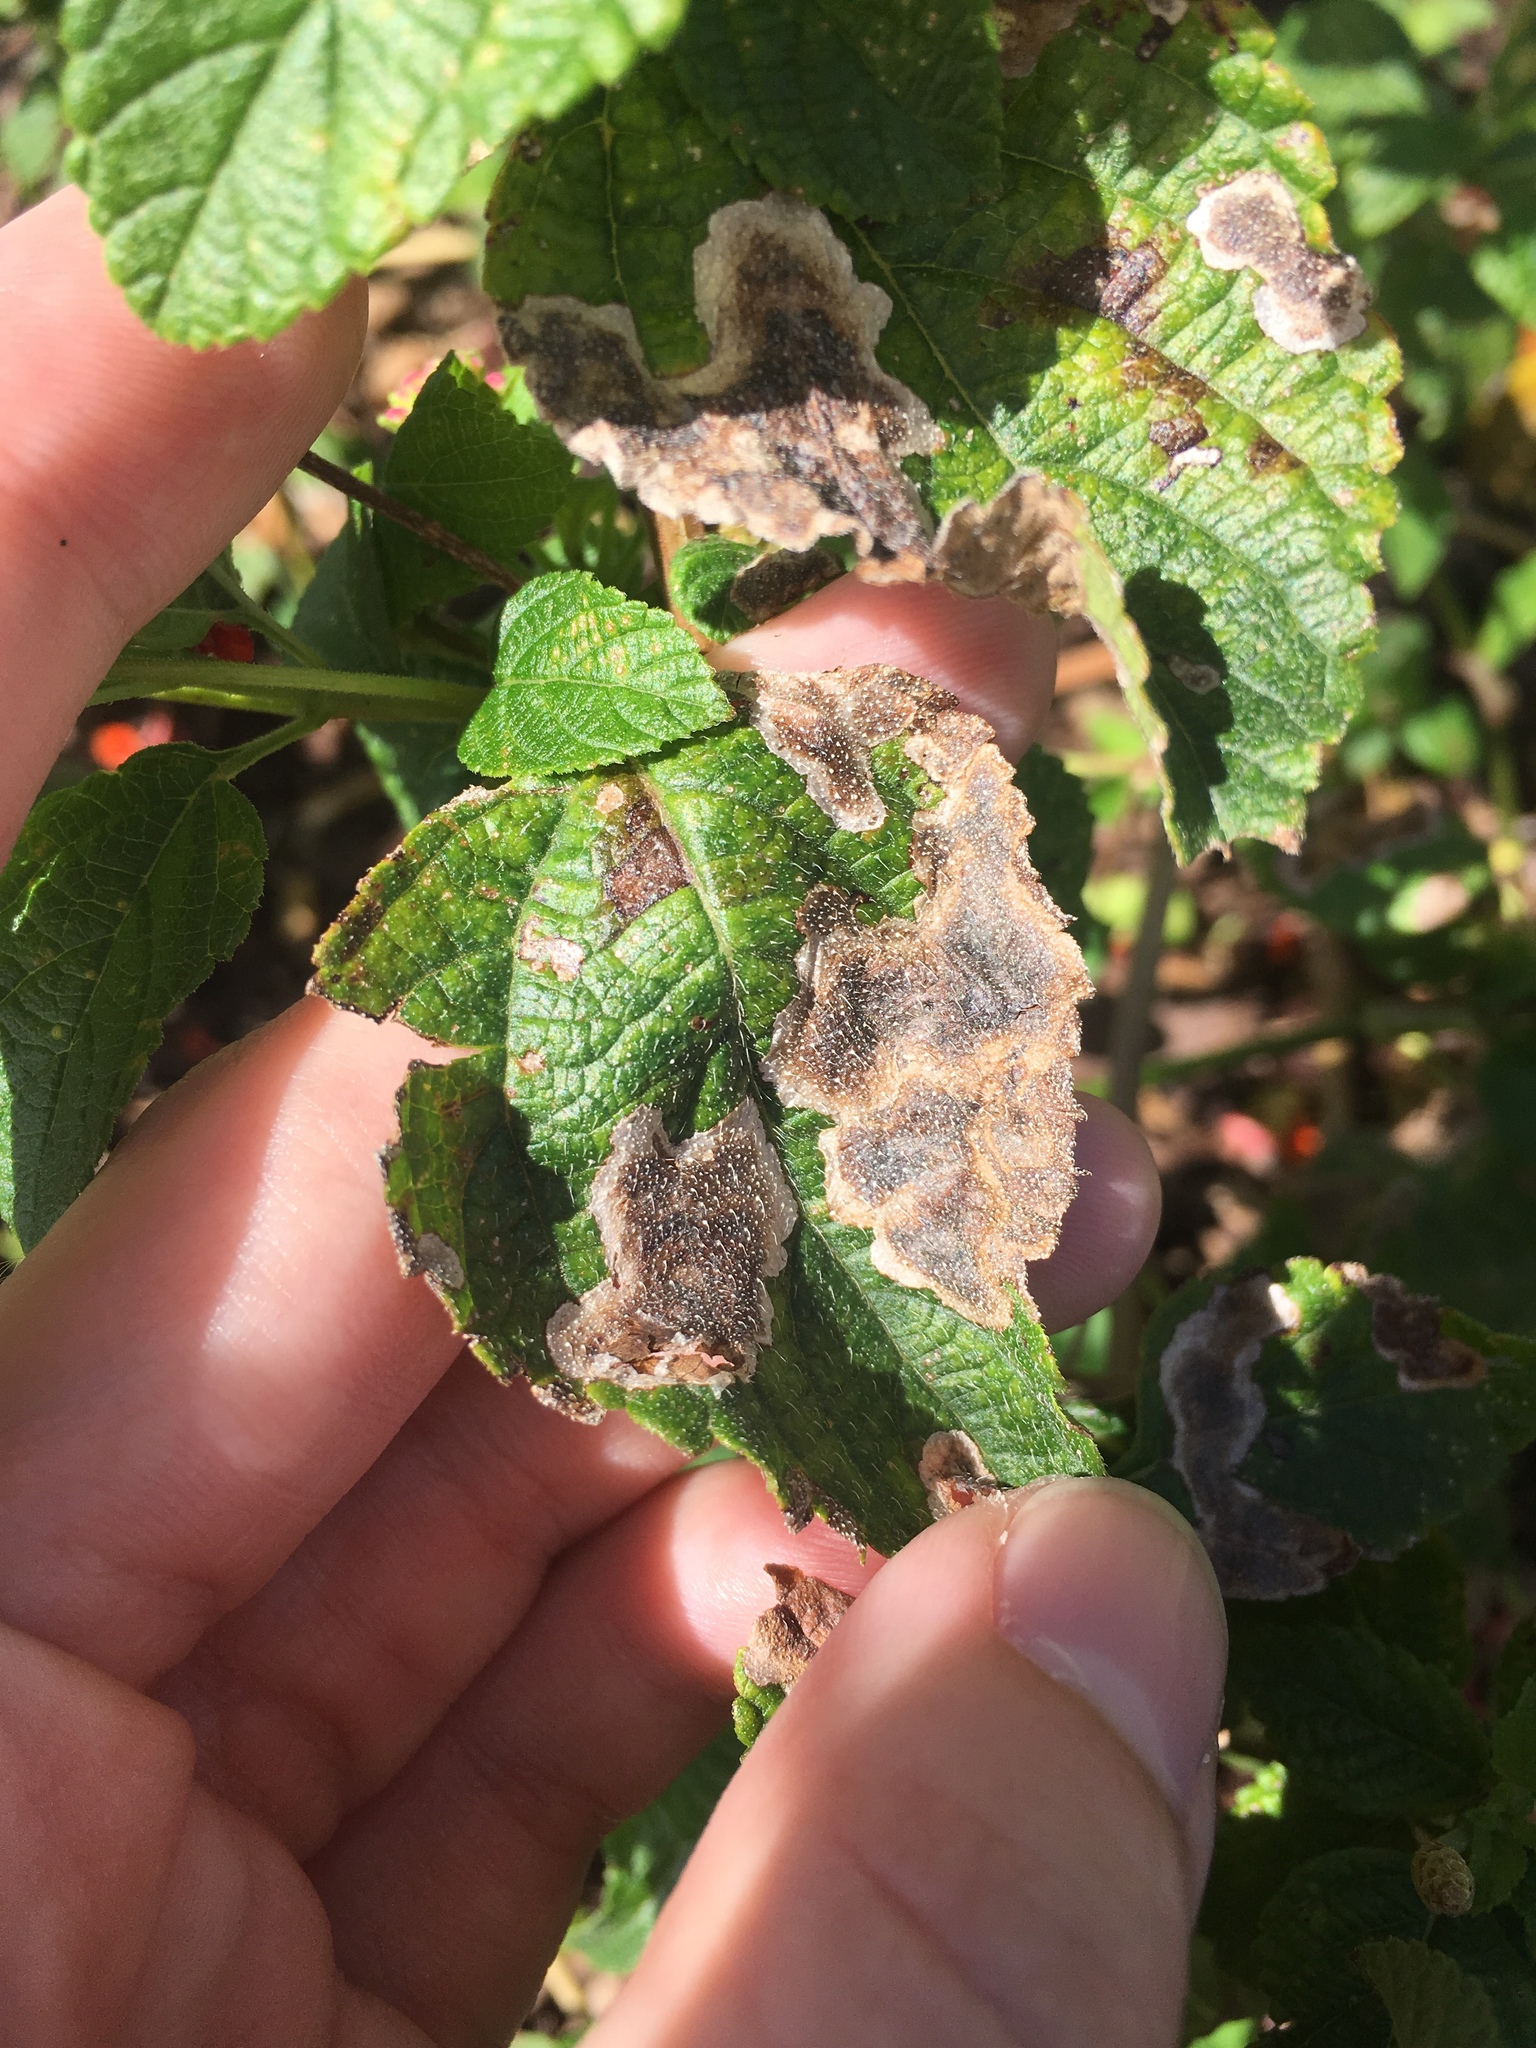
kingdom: Animalia
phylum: Arthropoda
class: Insecta
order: Diptera
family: Agromyzidae
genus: Calycomyza
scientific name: Calycomyza lantanae
